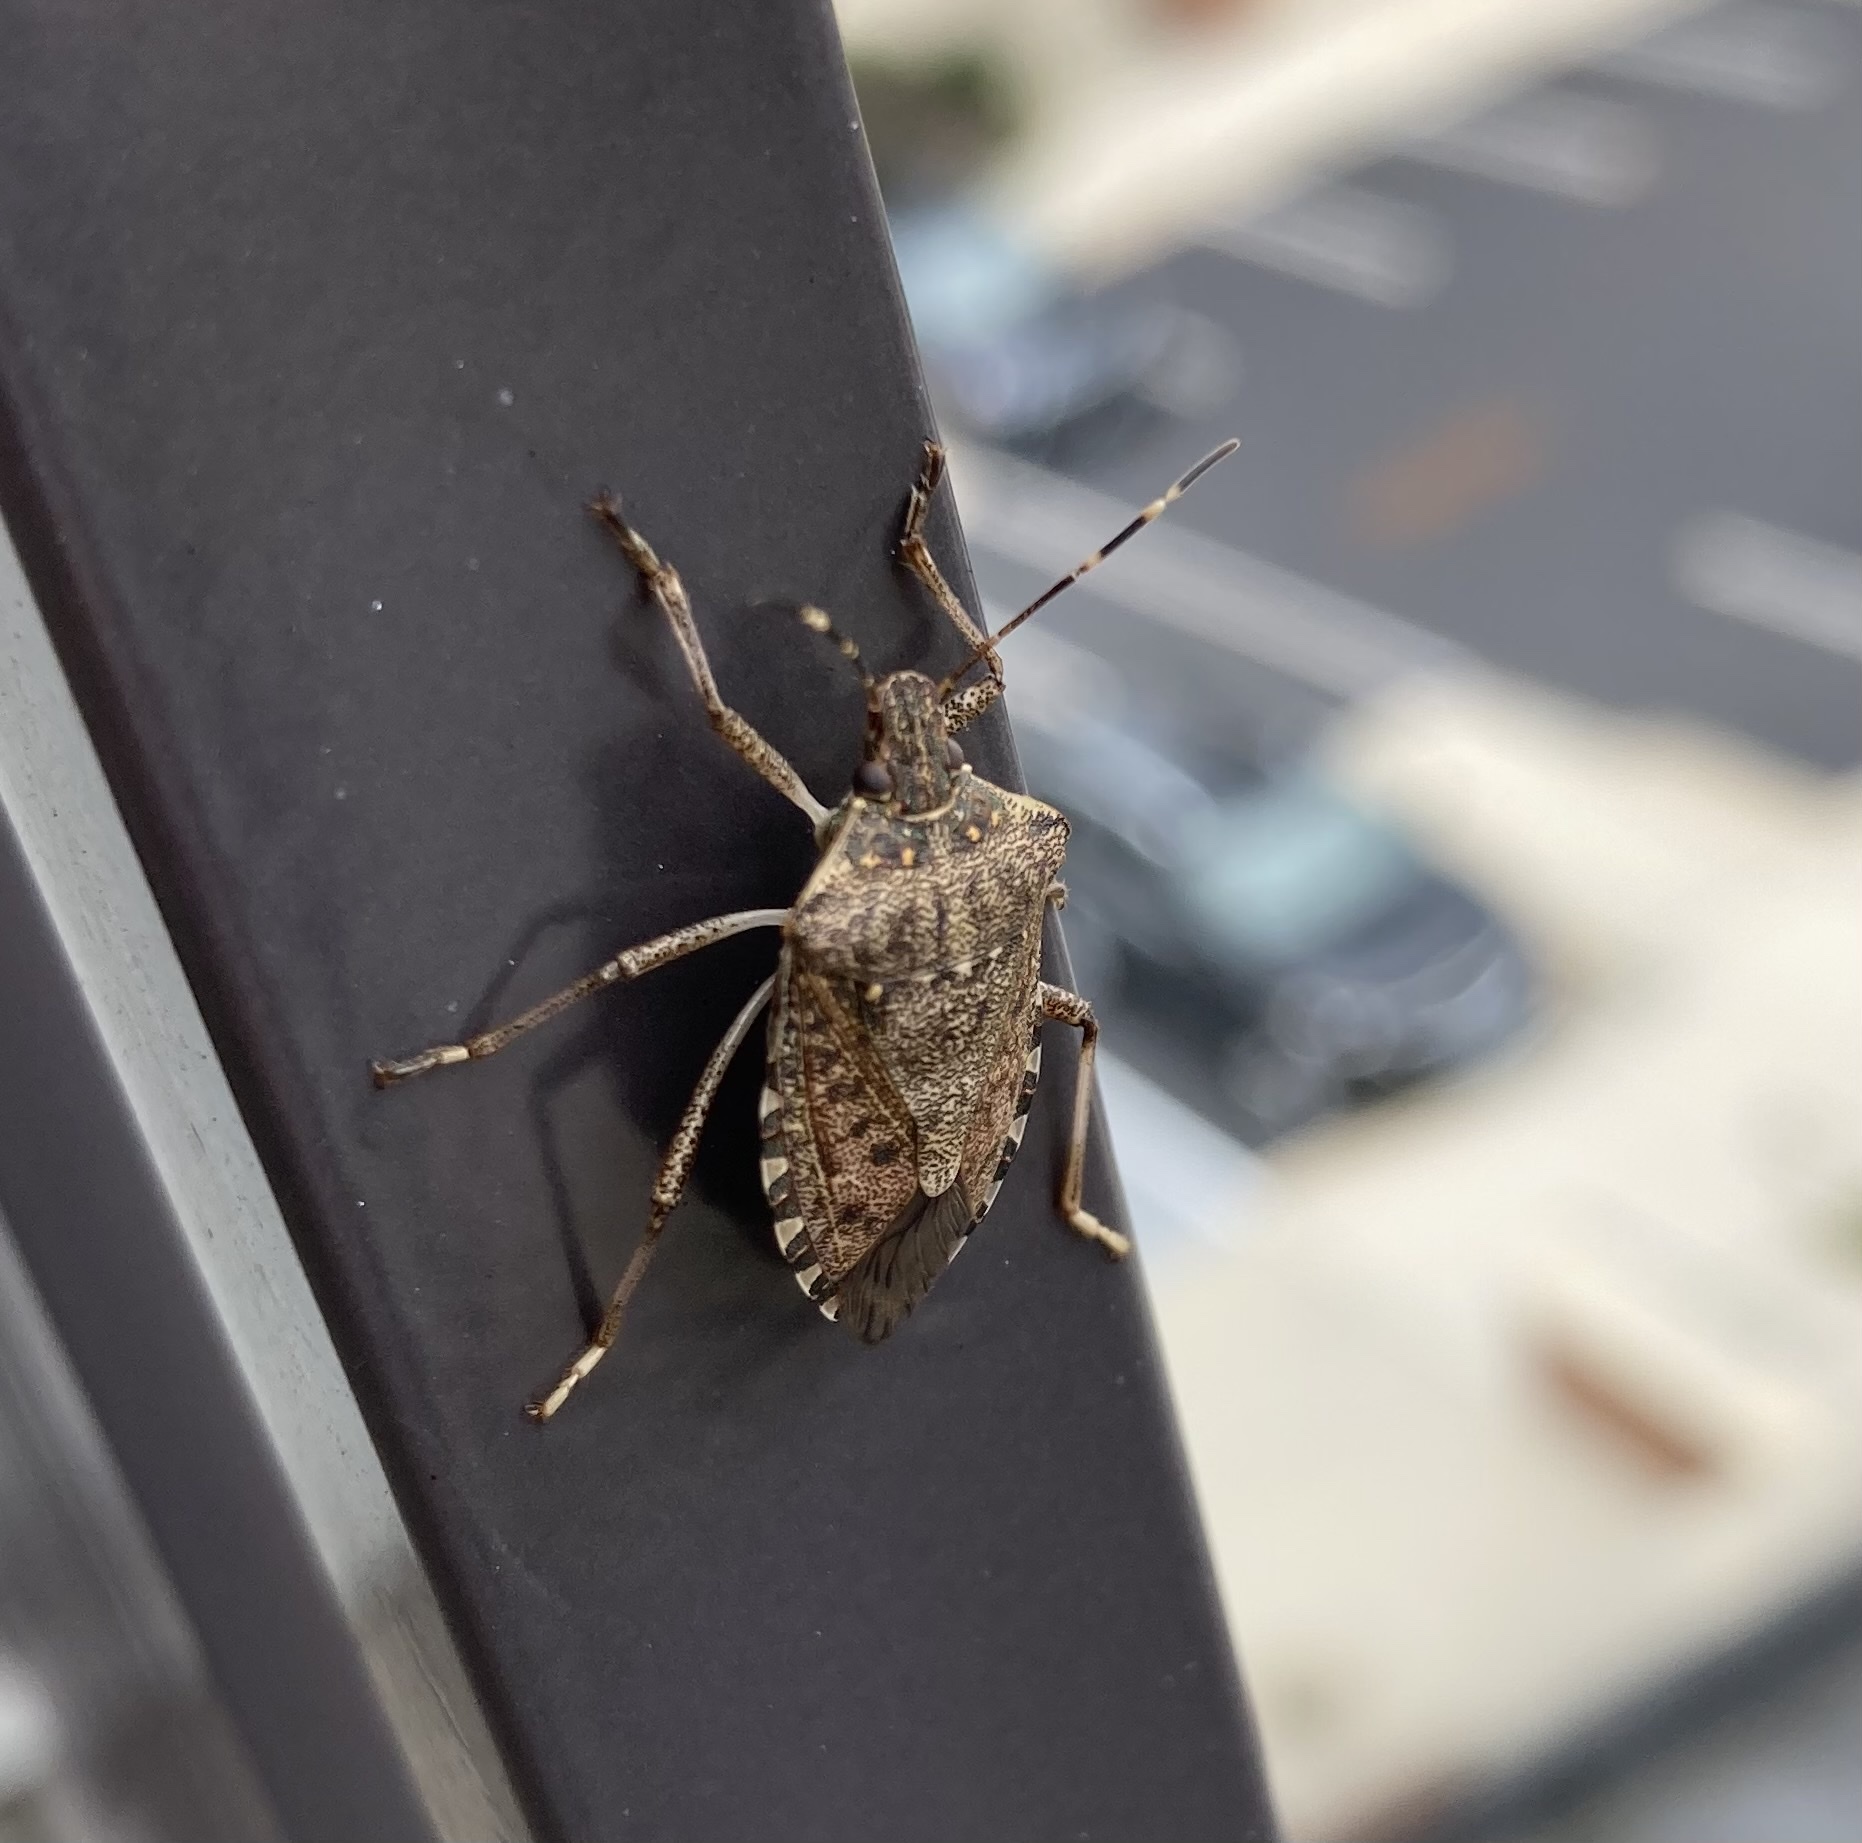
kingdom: Animalia
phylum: Arthropoda
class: Insecta
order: Hemiptera
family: Pentatomidae
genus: Halyomorpha
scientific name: Halyomorpha halys
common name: Brown marmorated stink bug
